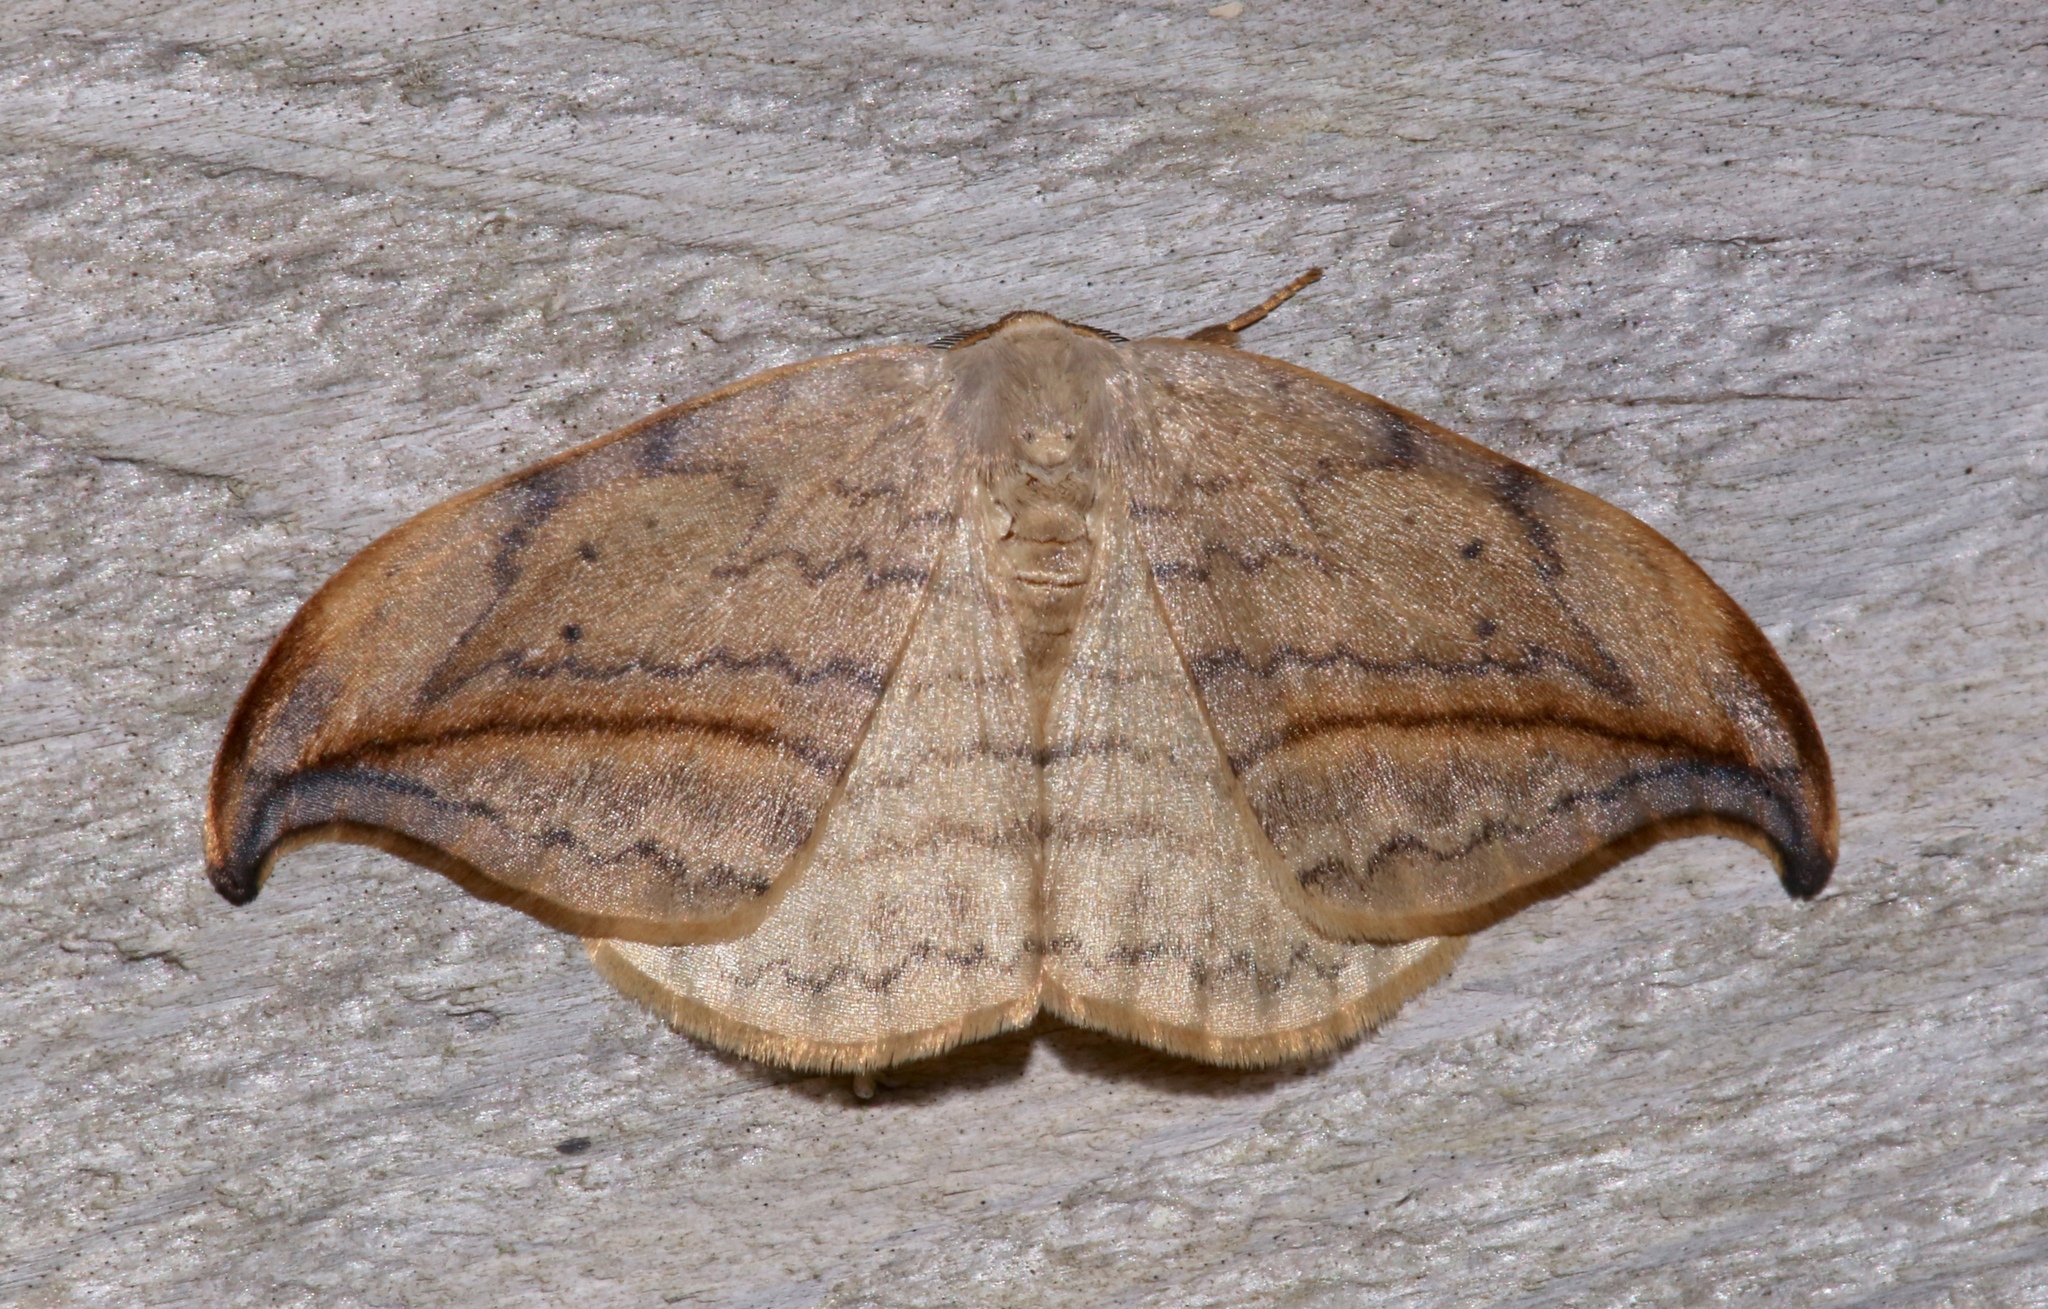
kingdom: Animalia
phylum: Arthropoda
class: Insecta
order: Lepidoptera
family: Drepanidae
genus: Drepana
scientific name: Drepana arcuata
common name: Arched hooktip moth
